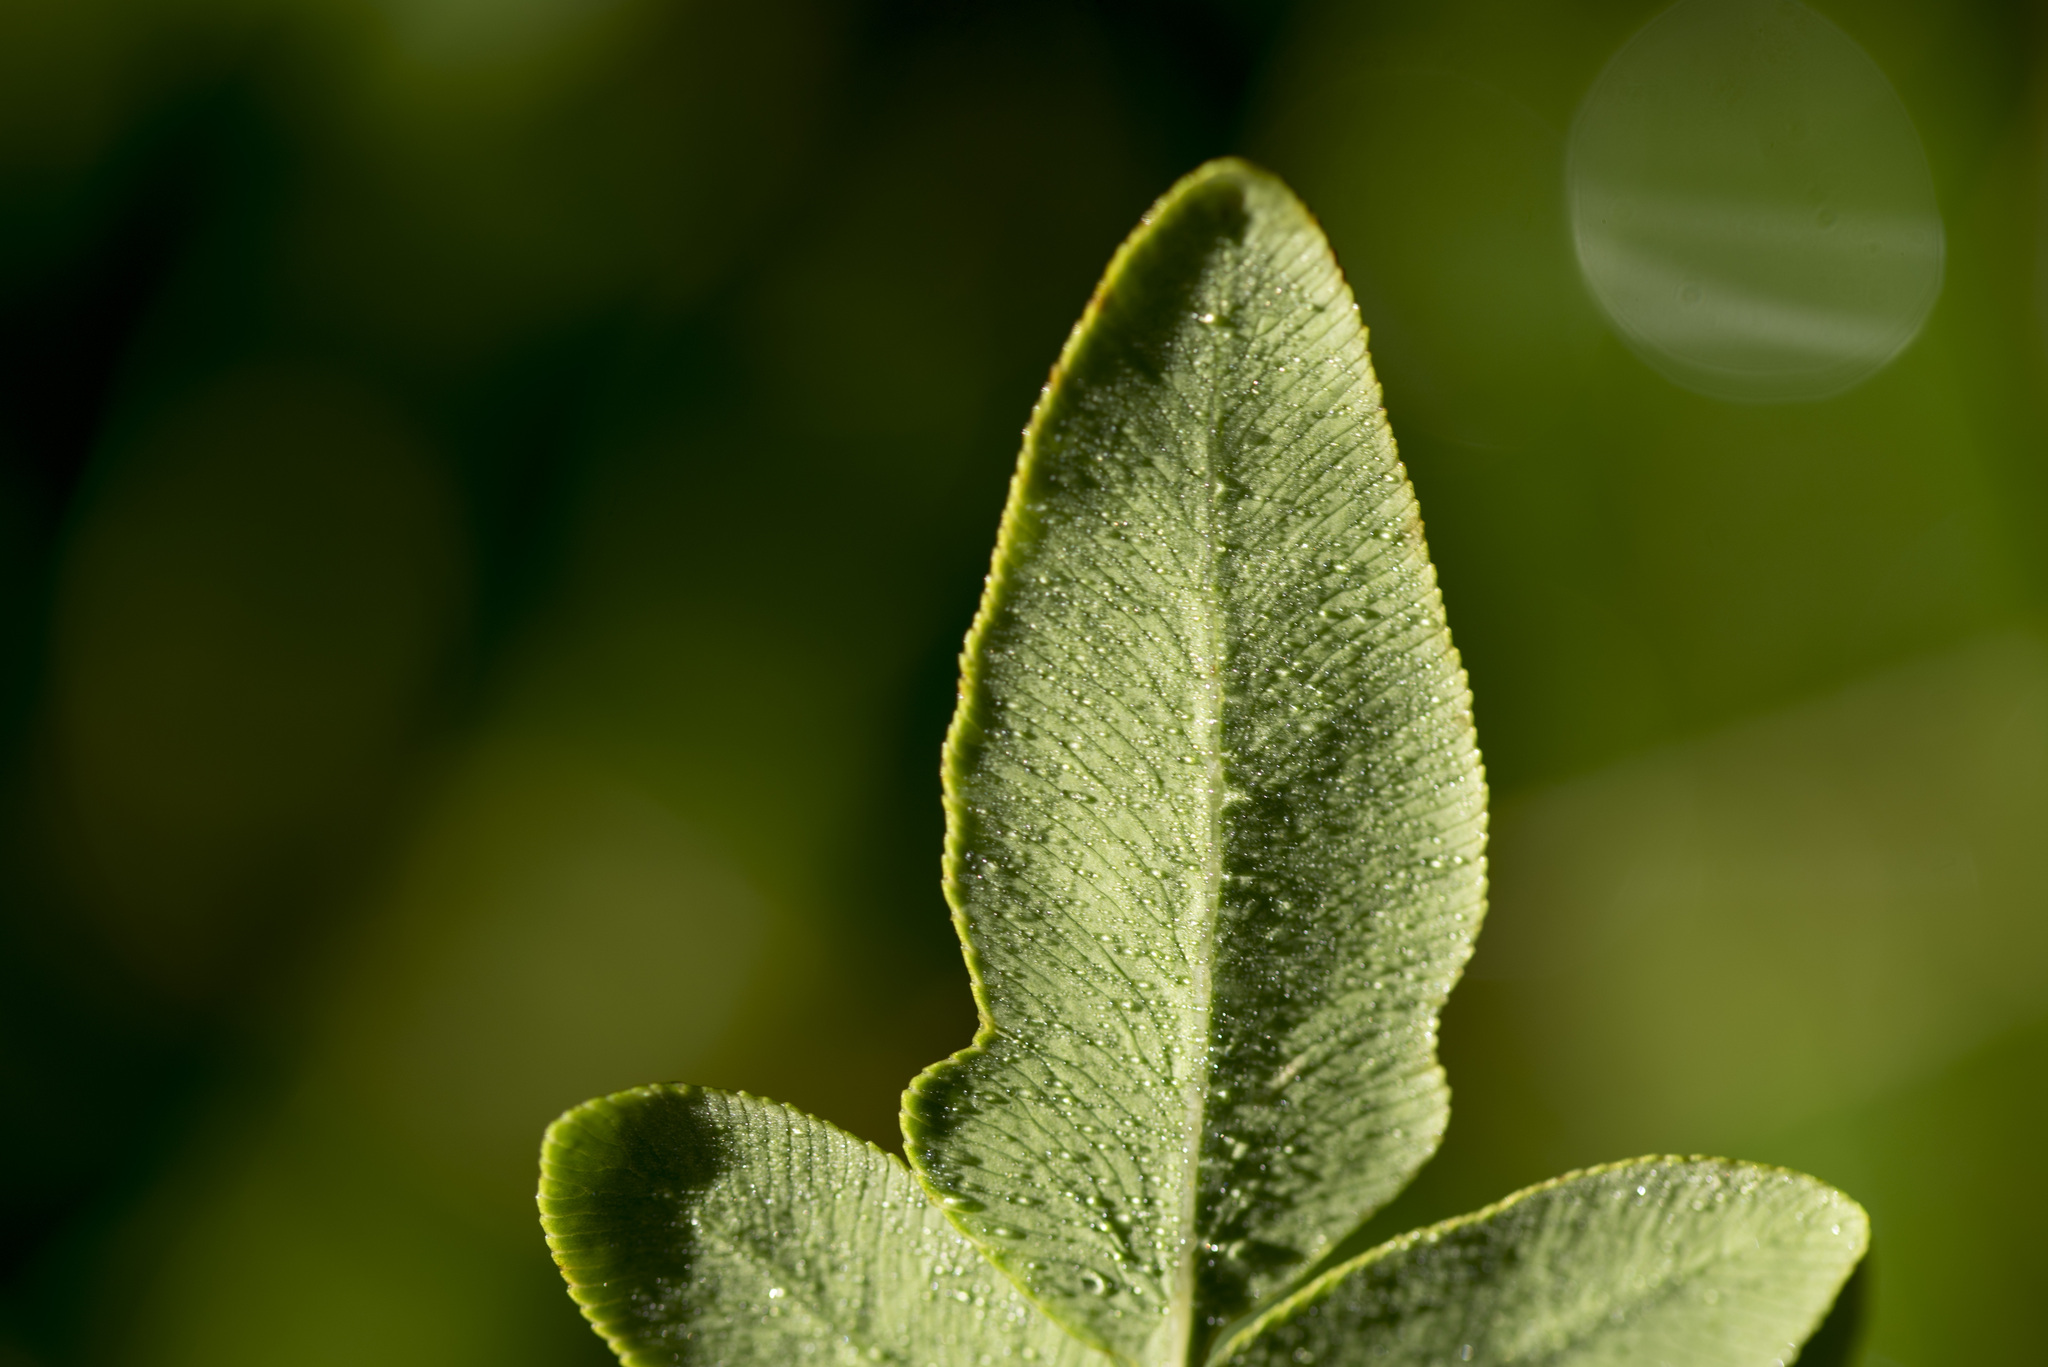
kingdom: Plantae
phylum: Tracheophyta
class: Polypodiopsida
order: Osmundales
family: Osmundaceae
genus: Osmunda
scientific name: Osmunda japonica
